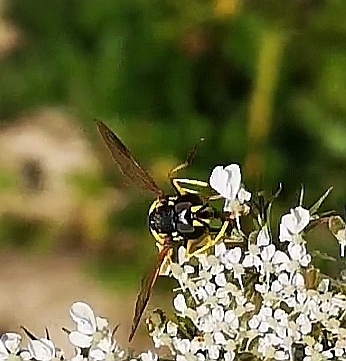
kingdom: Animalia
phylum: Arthropoda
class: Insecta
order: Diptera
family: Syrphidae
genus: Chrysotoxum
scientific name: Chrysotoxum bicincta
